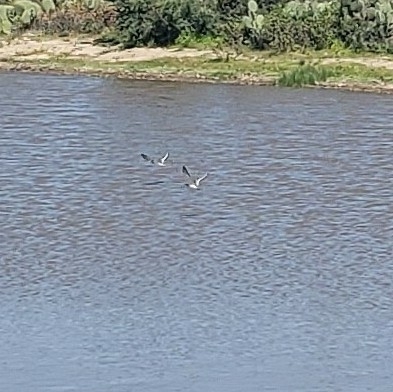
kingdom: Animalia
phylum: Chordata
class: Aves
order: Charadriiformes
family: Charadriidae
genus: Charadrius
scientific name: Charadrius vociferus
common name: Killdeer
